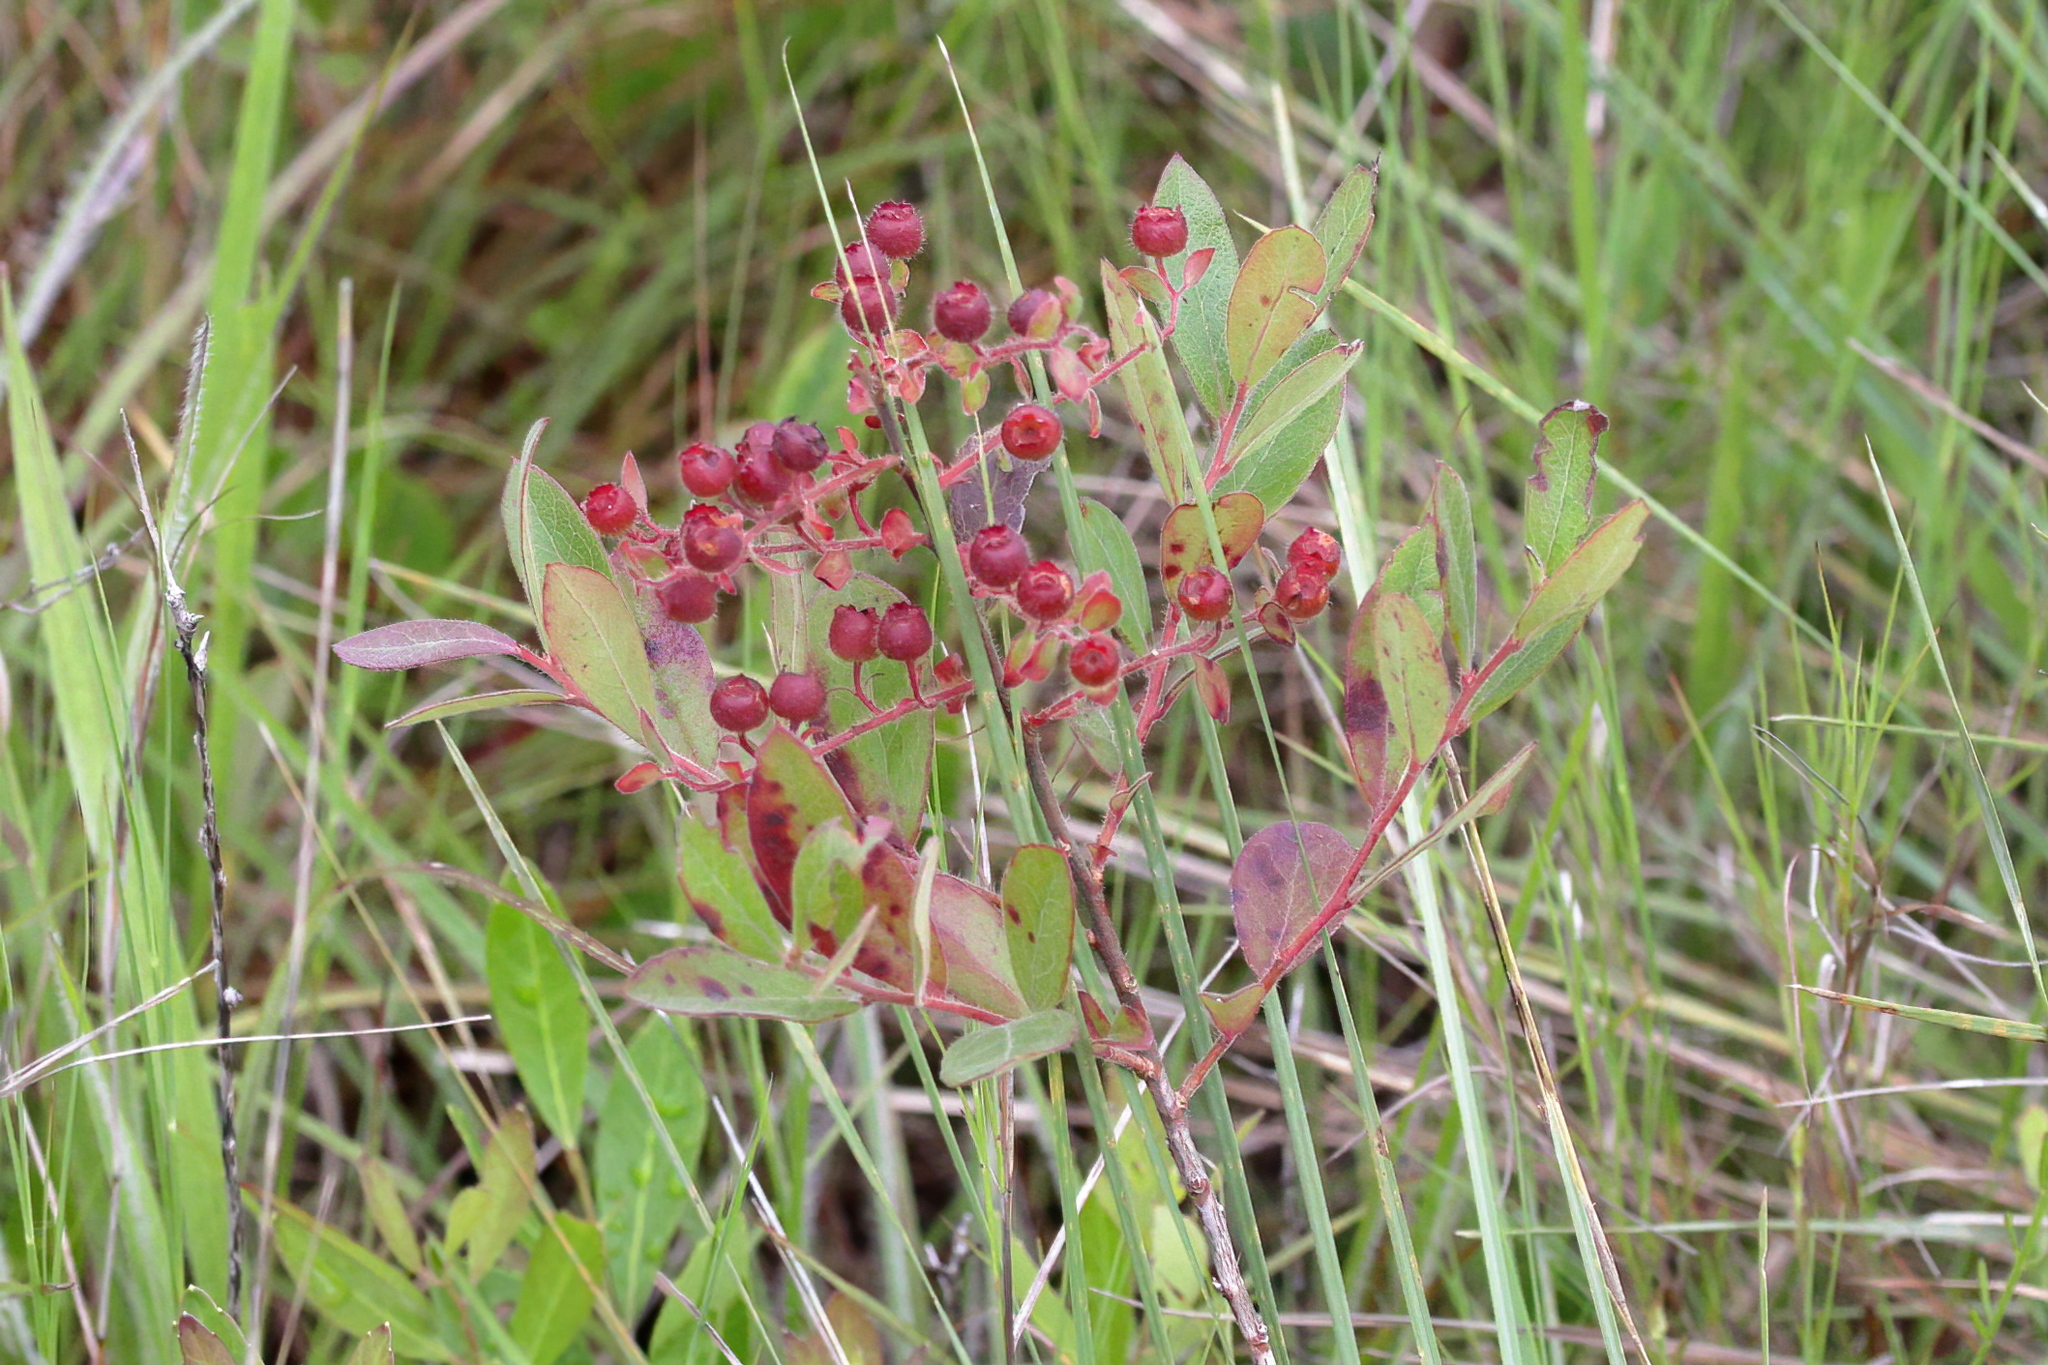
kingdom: Plantae
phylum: Tracheophyta
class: Magnoliopsida
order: Ericales
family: Ericaceae
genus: Gaylussacia
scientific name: Gaylussacia mosieri
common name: Hirsute huckleberry
